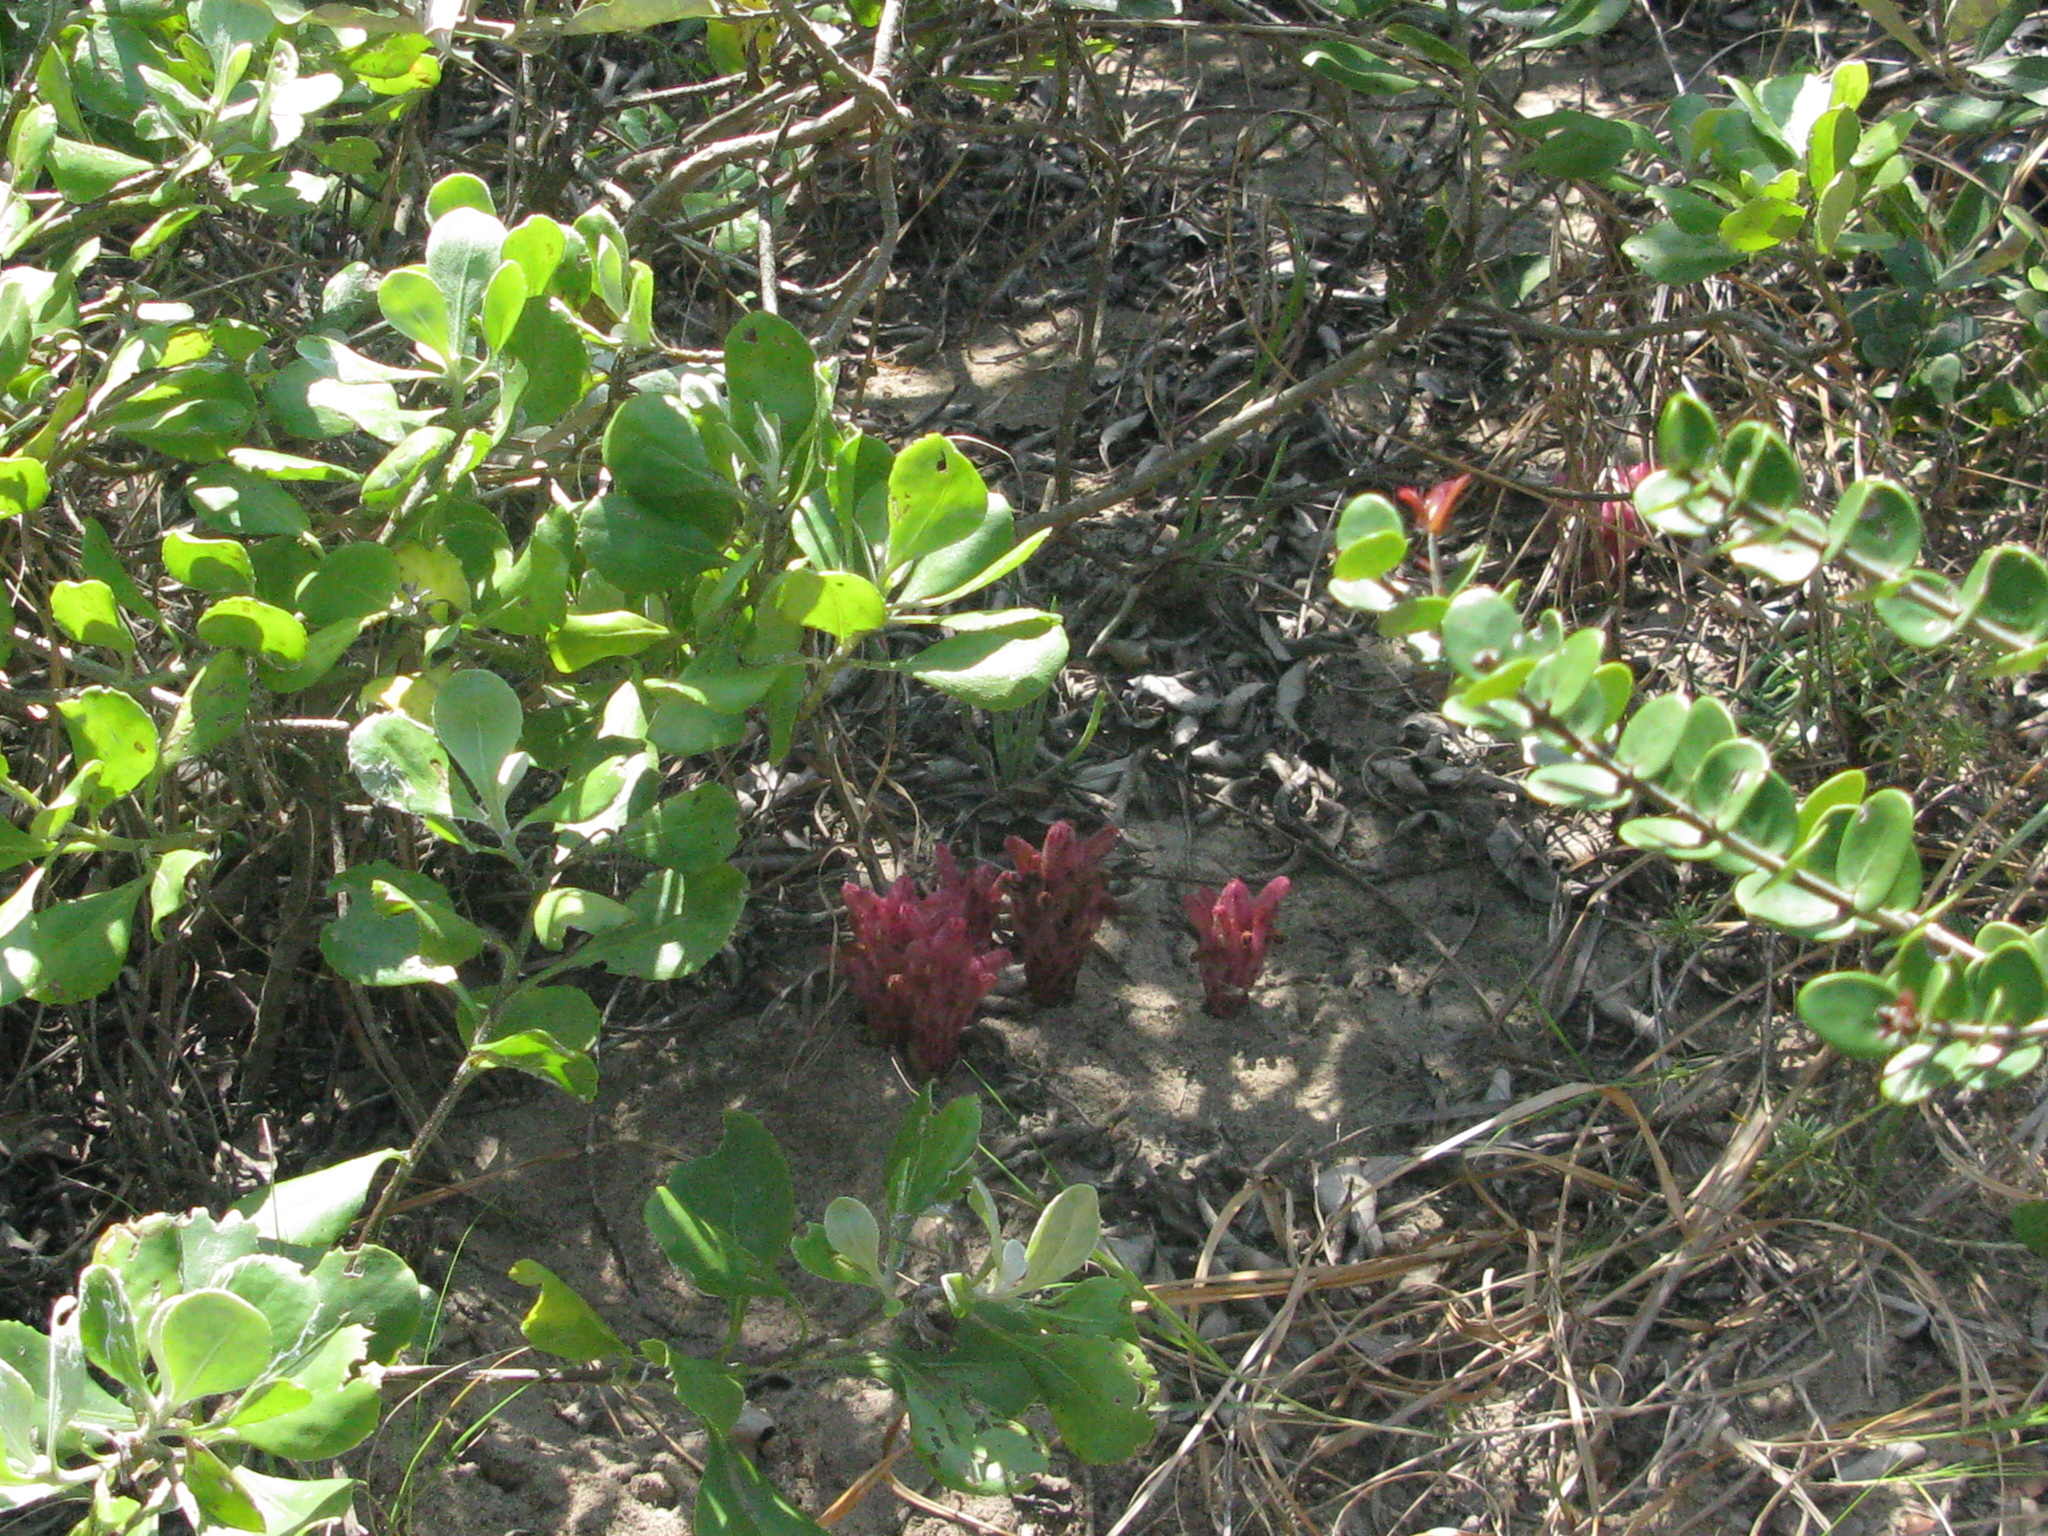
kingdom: Plantae
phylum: Tracheophyta
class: Magnoliopsida
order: Lamiales
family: Orobanchaceae
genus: Hyobanche
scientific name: Hyobanche fulleri
